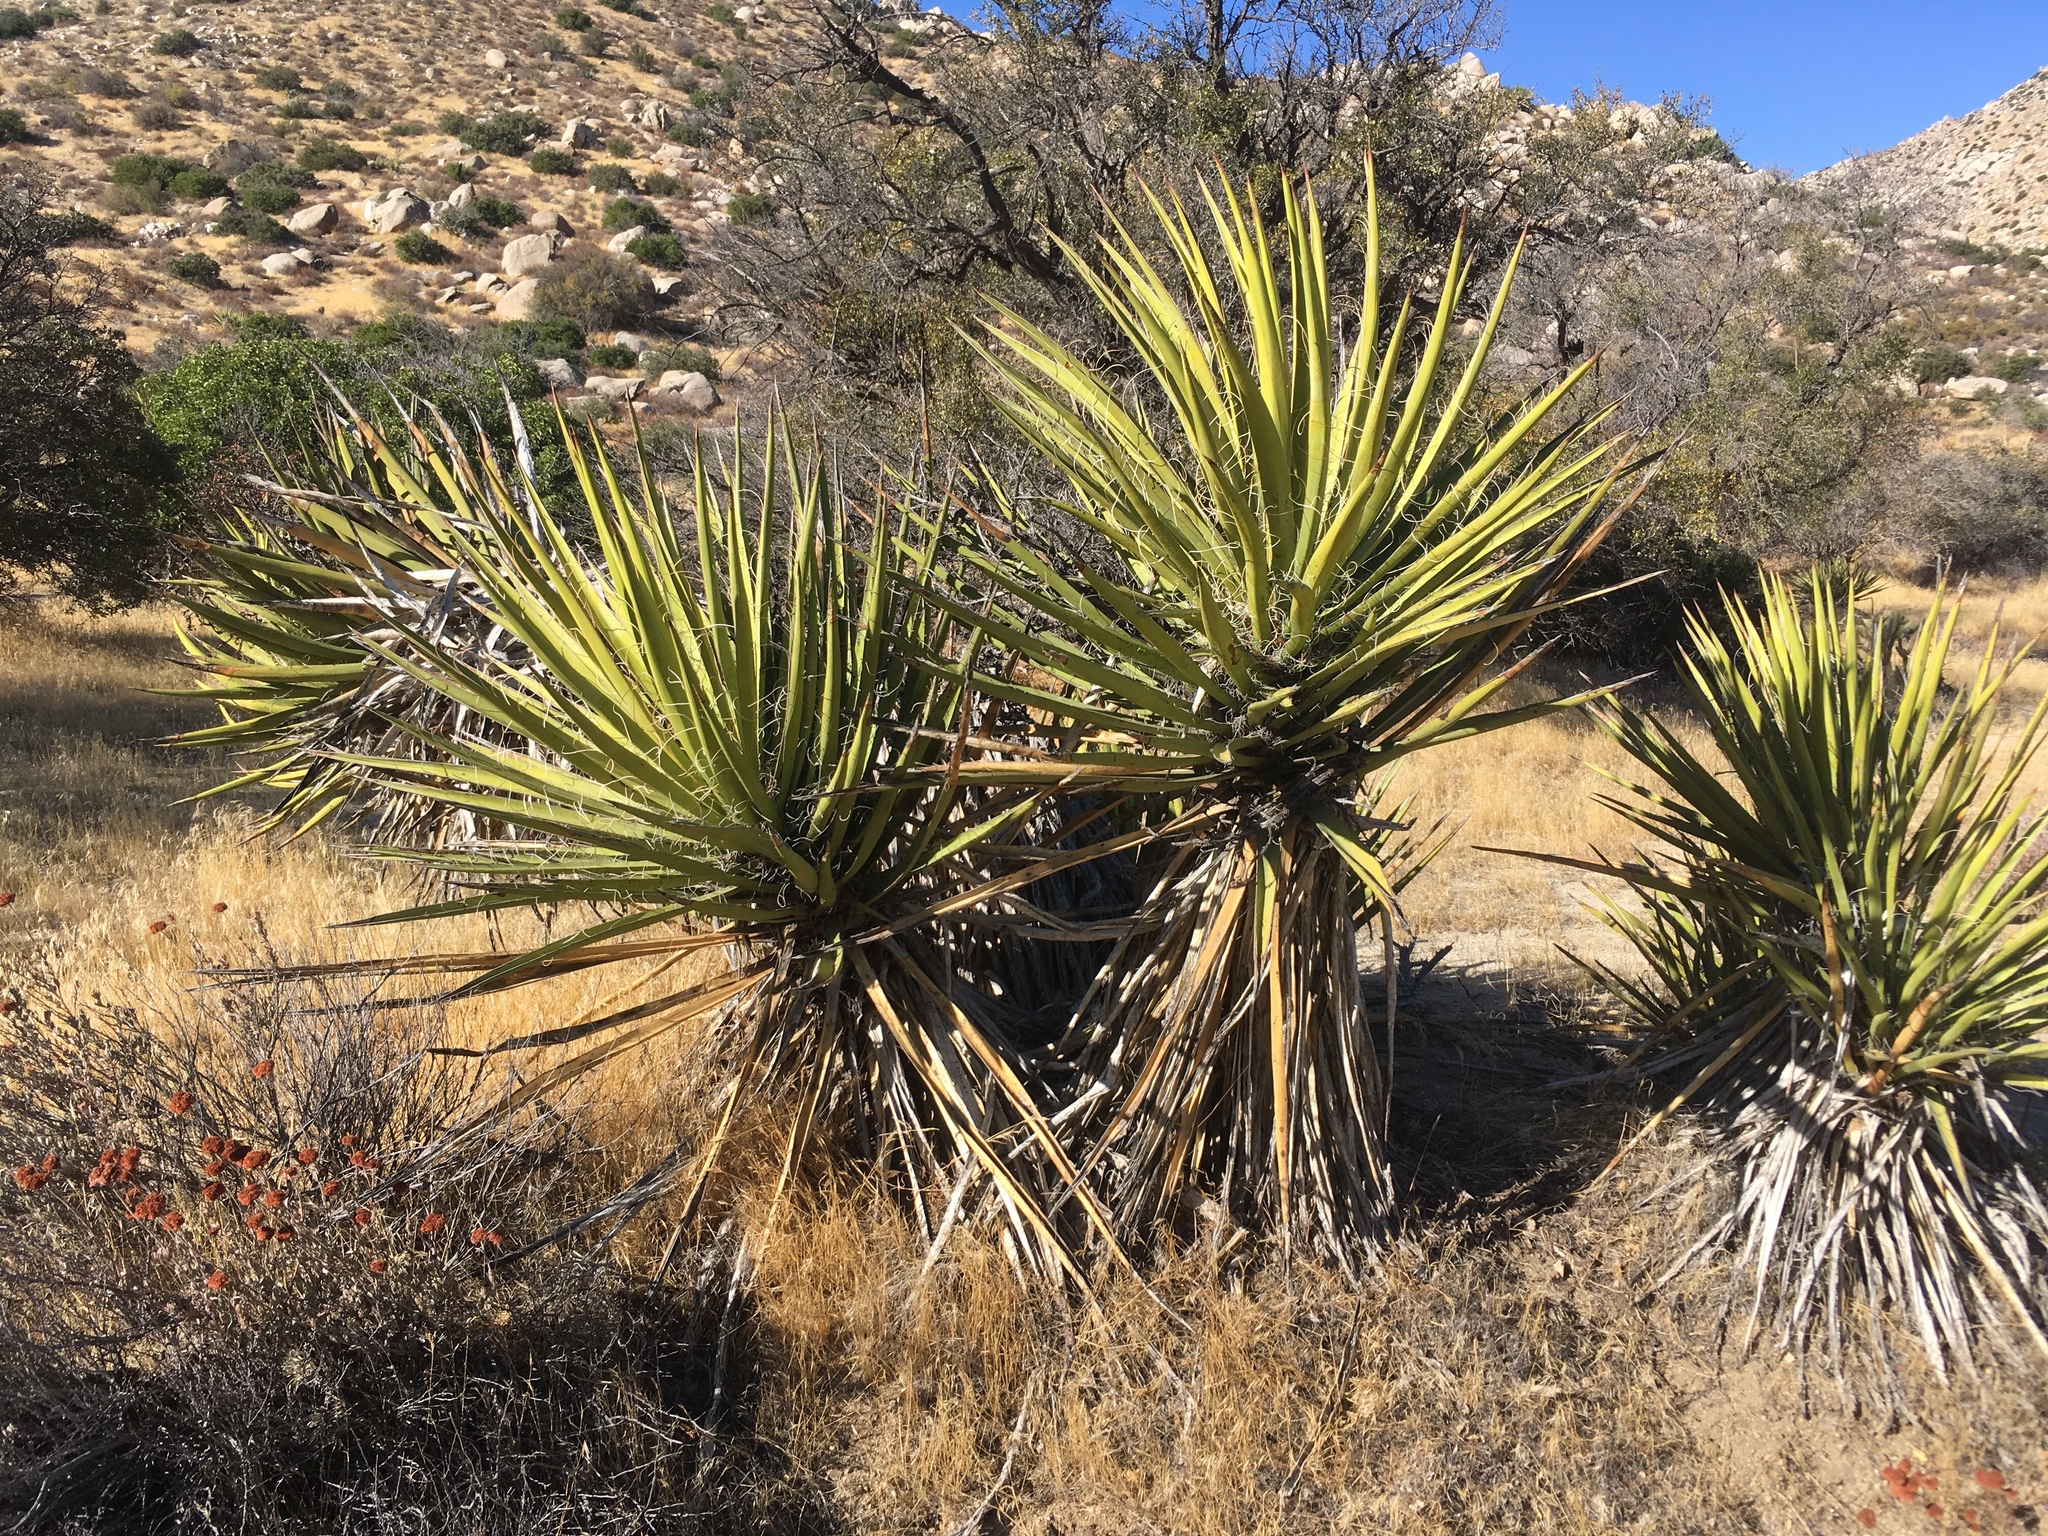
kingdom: Plantae
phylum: Tracheophyta
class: Liliopsida
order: Asparagales
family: Asparagaceae
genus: Yucca
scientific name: Yucca schidigera
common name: Mojave yucca
